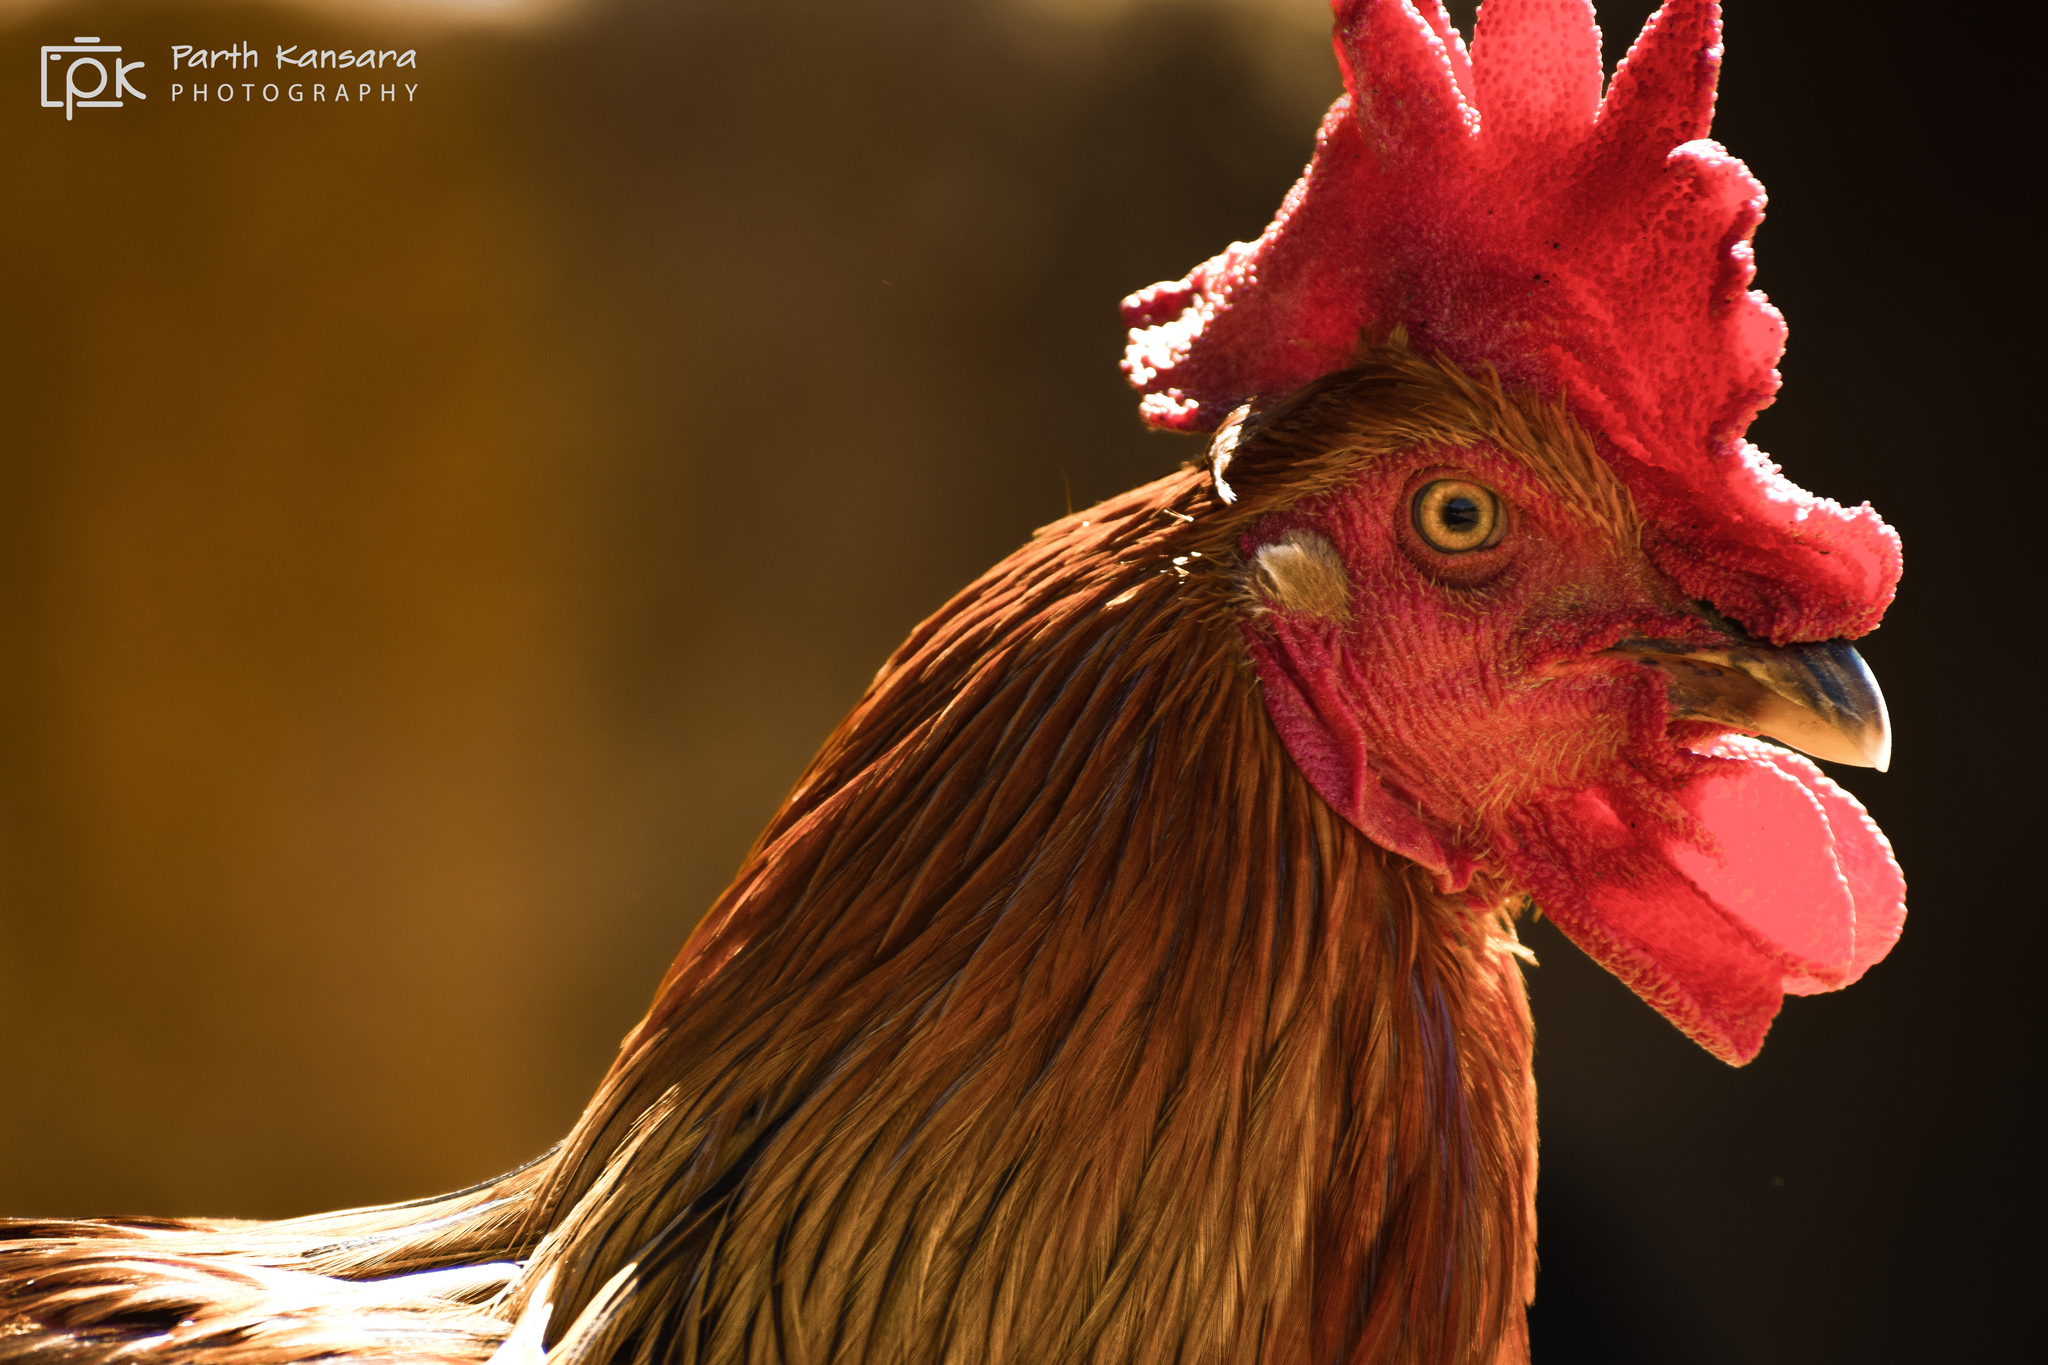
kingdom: Animalia
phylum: Chordata
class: Aves
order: Galliformes
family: Phasianidae
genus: Gallus
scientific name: Gallus gallus
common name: Red junglefowl
